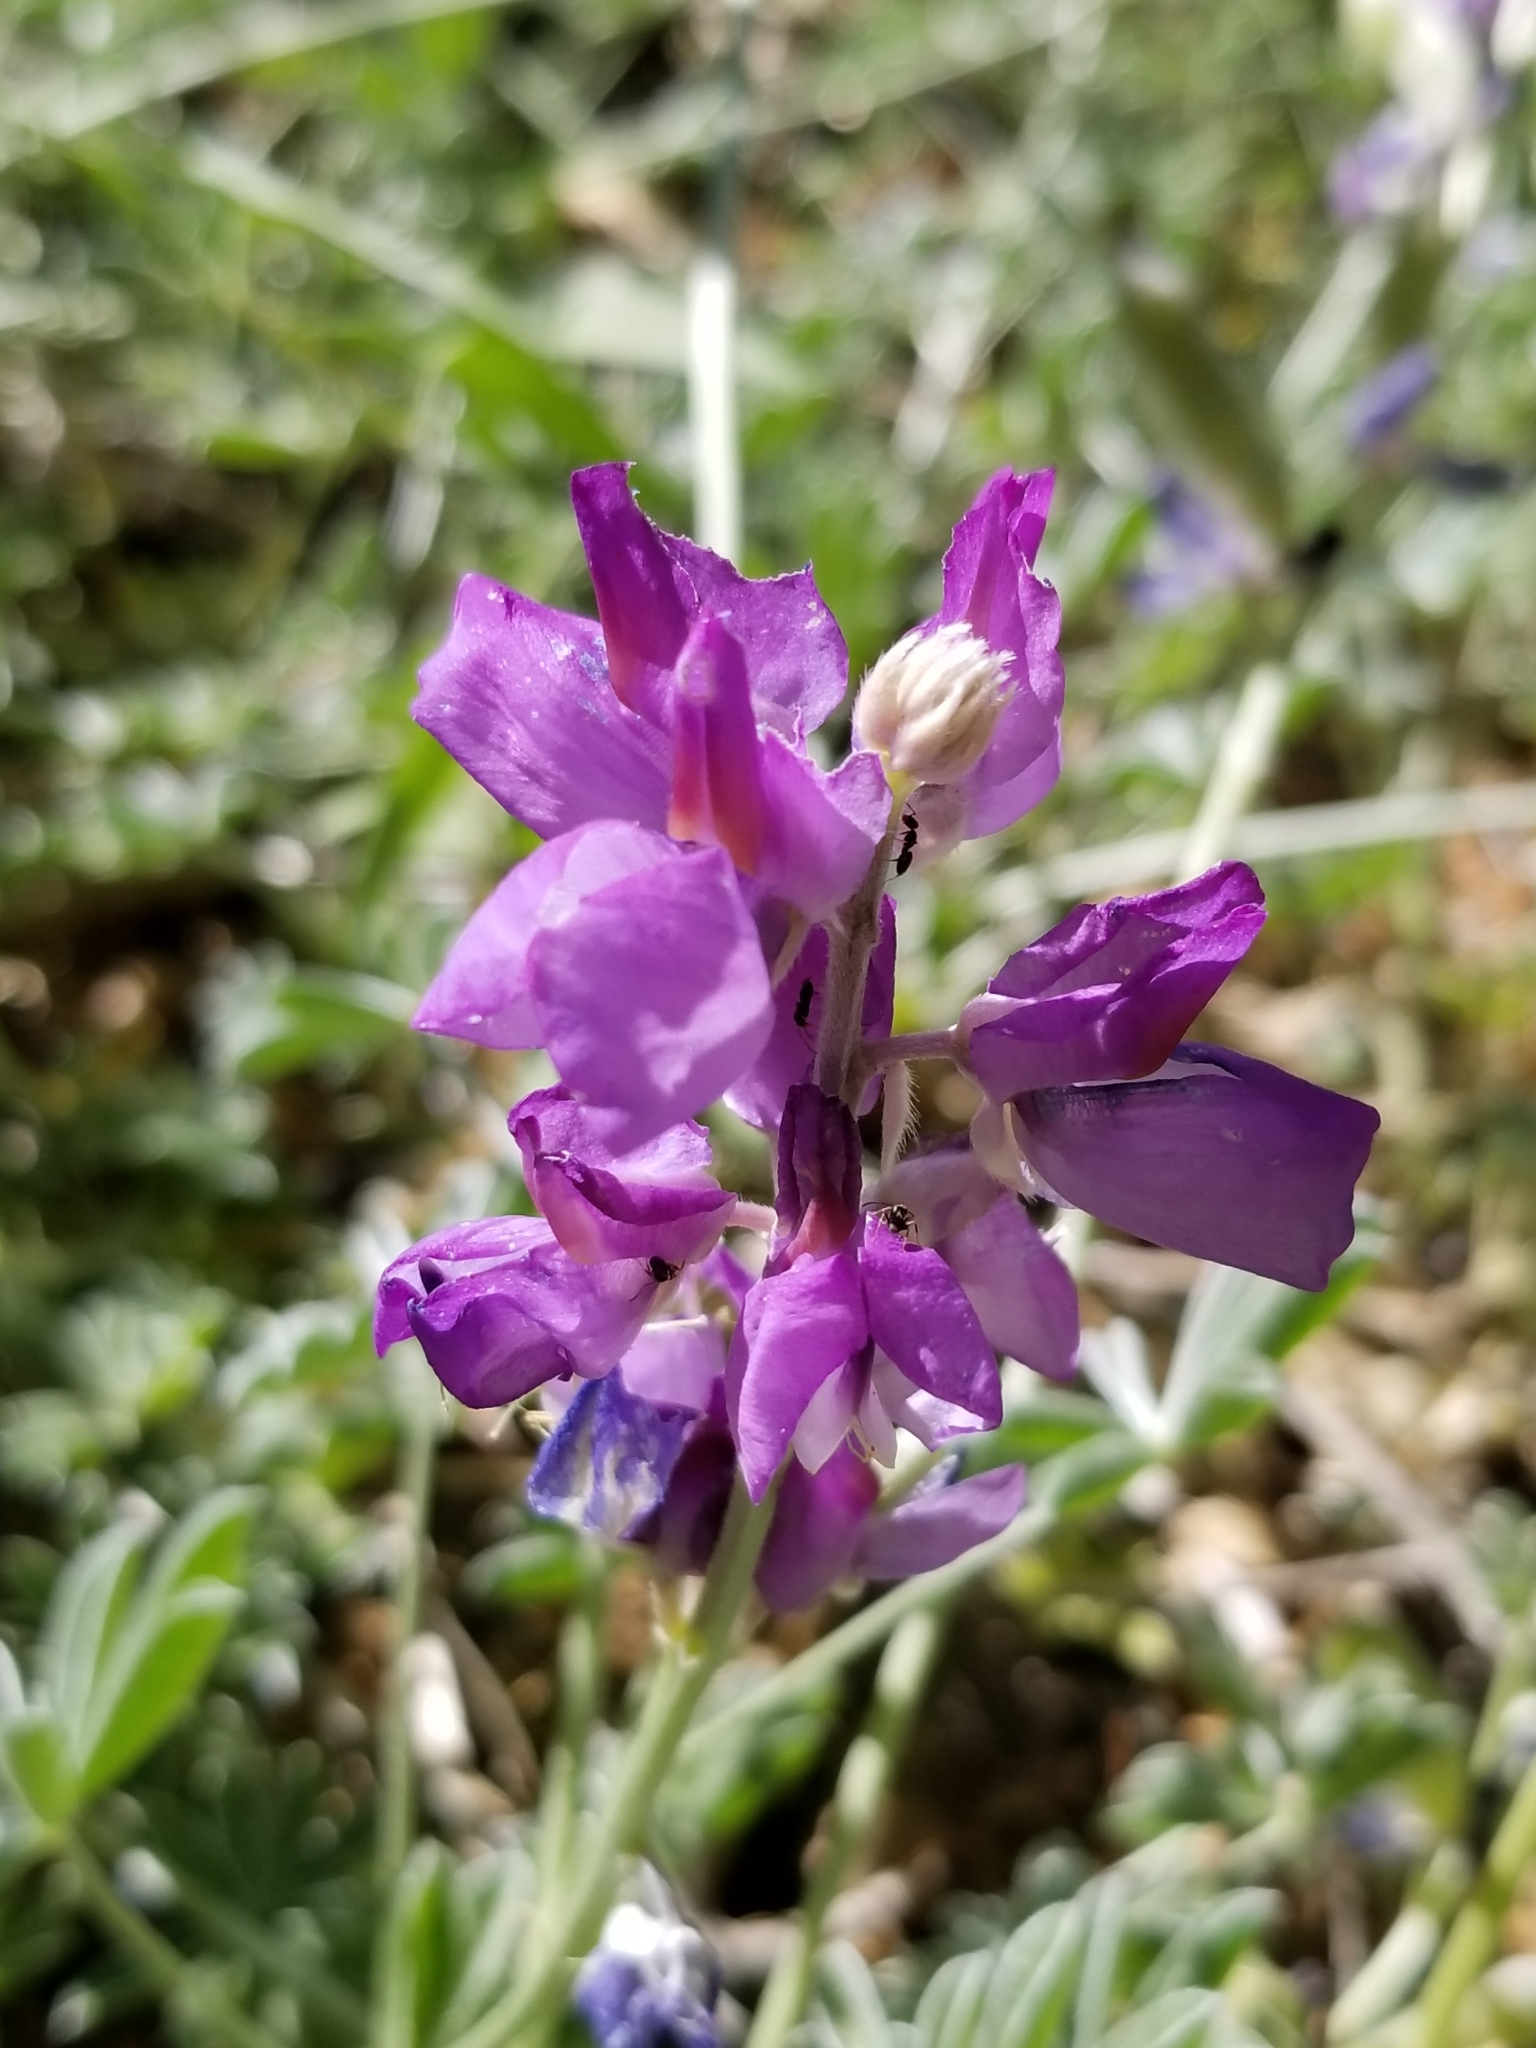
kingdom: Plantae
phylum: Tracheophyta
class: Magnoliopsida
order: Fabales
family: Fabaceae
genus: Lupinus
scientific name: Lupinus excubitus
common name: Grape soda lupine
